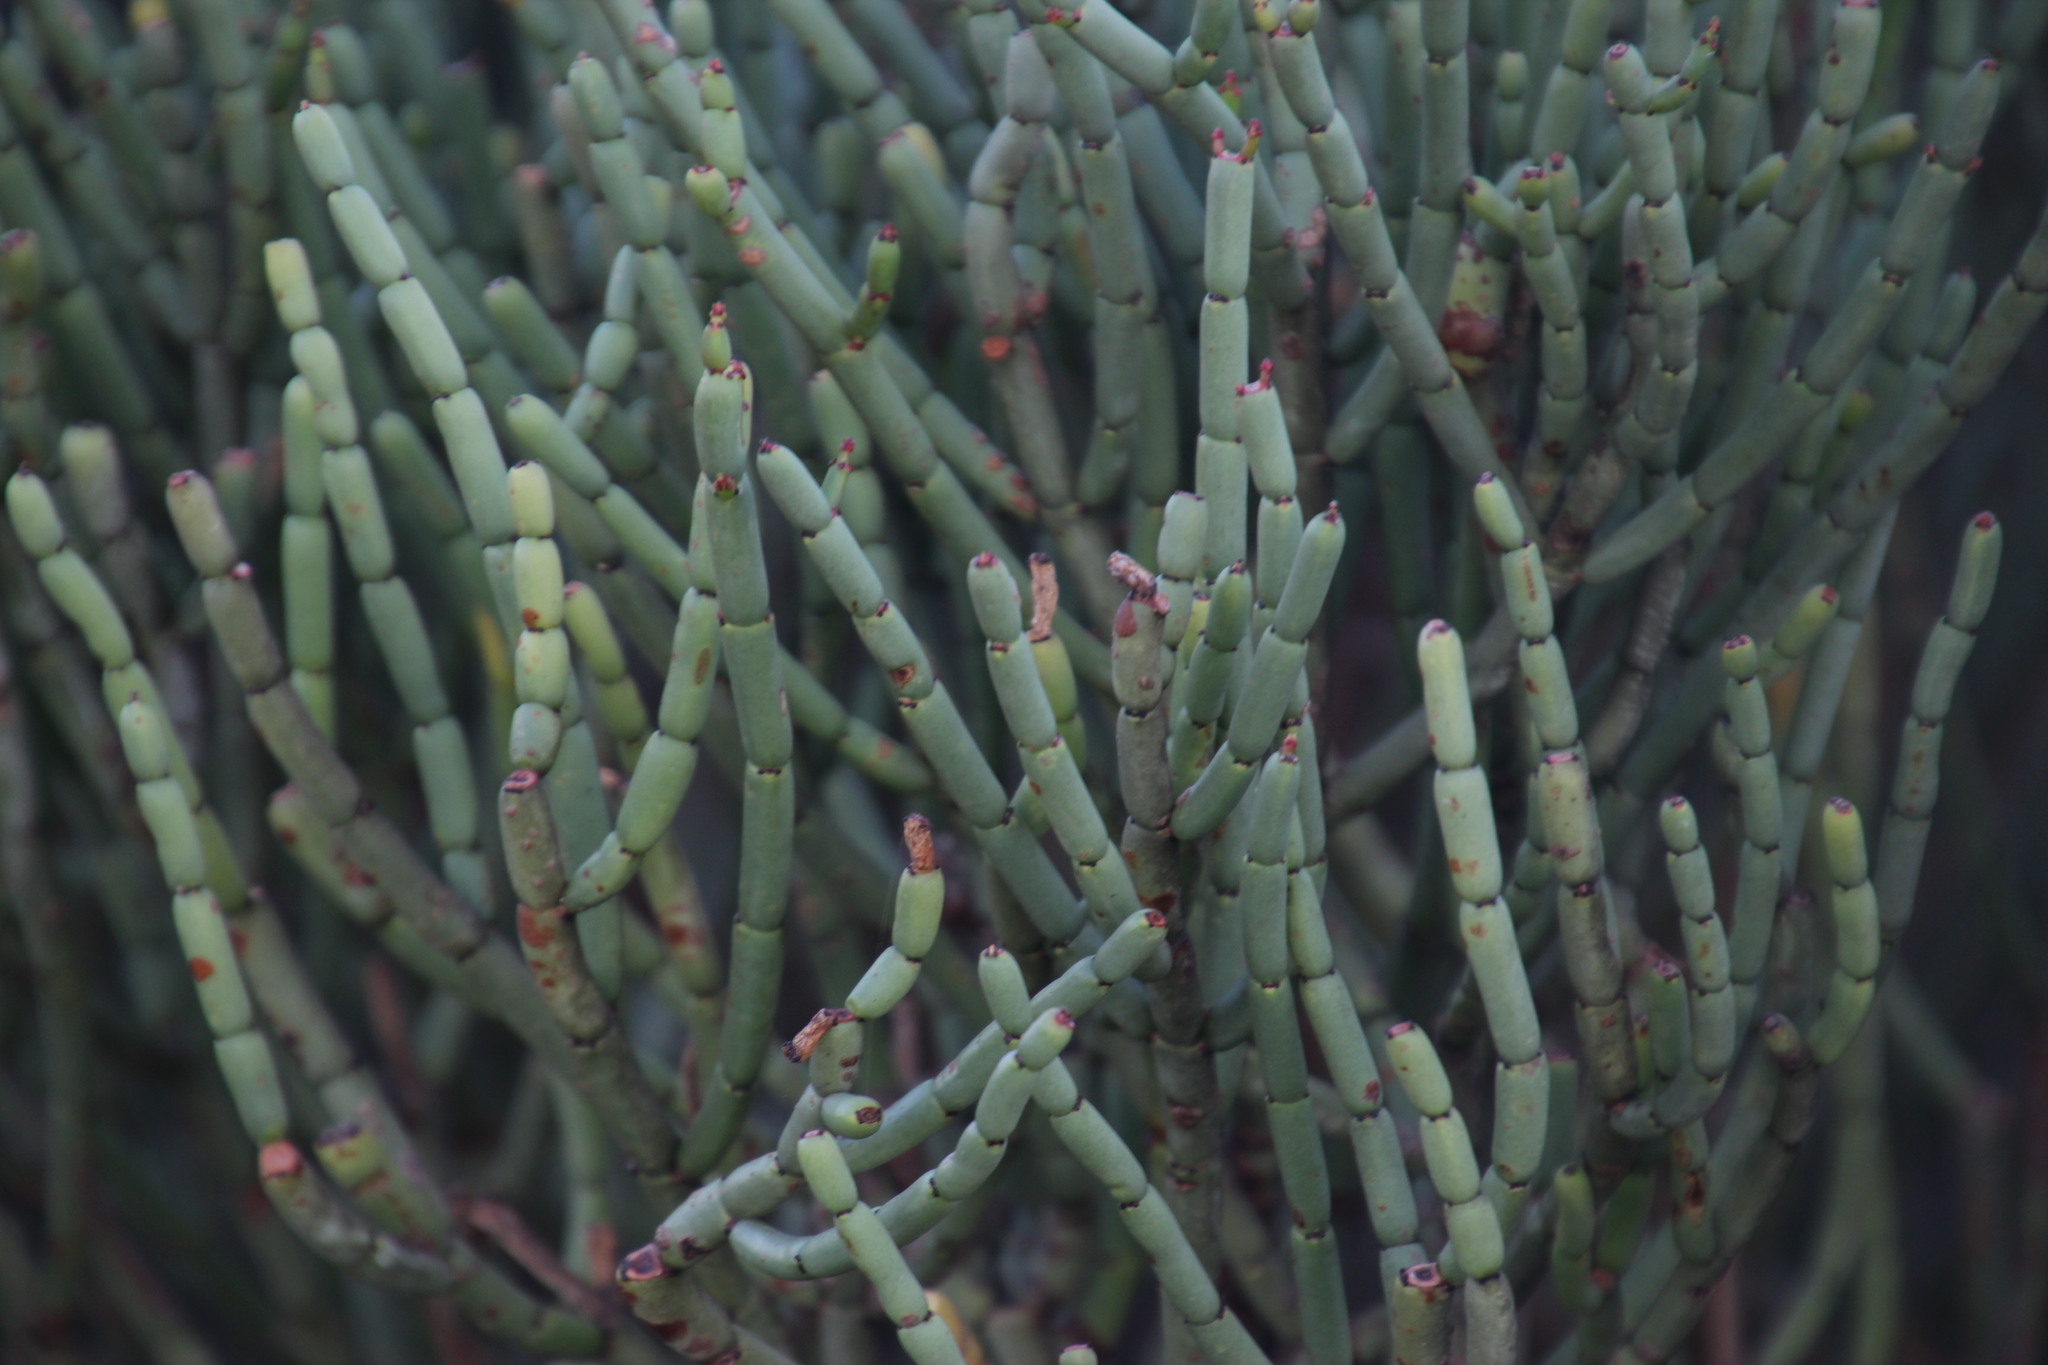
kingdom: Plantae
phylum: Tracheophyta
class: Magnoliopsida
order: Malpighiales
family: Euphorbiaceae
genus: Euphorbia
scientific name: Euphorbia burmanni
